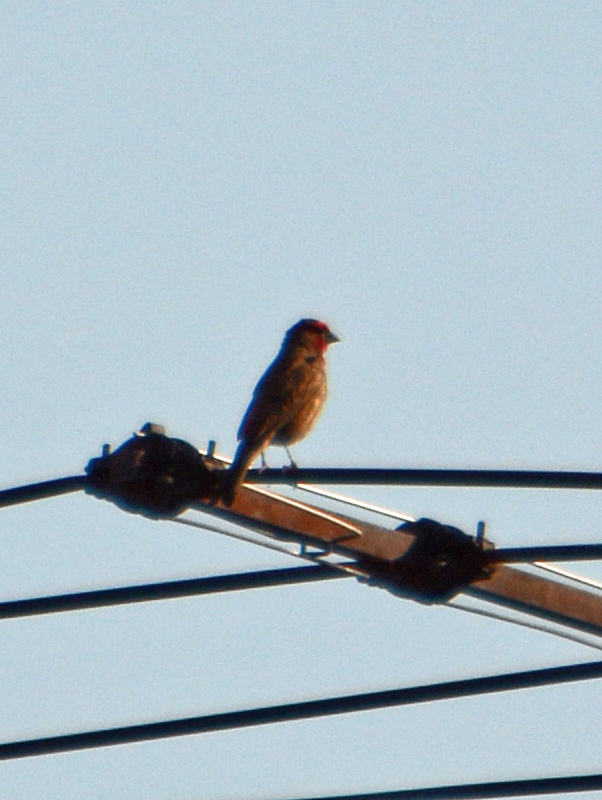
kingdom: Animalia
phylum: Chordata
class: Aves
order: Passeriformes
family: Fringillidae
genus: Haemorhous
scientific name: Haemorhous mexicanus
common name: House finch
